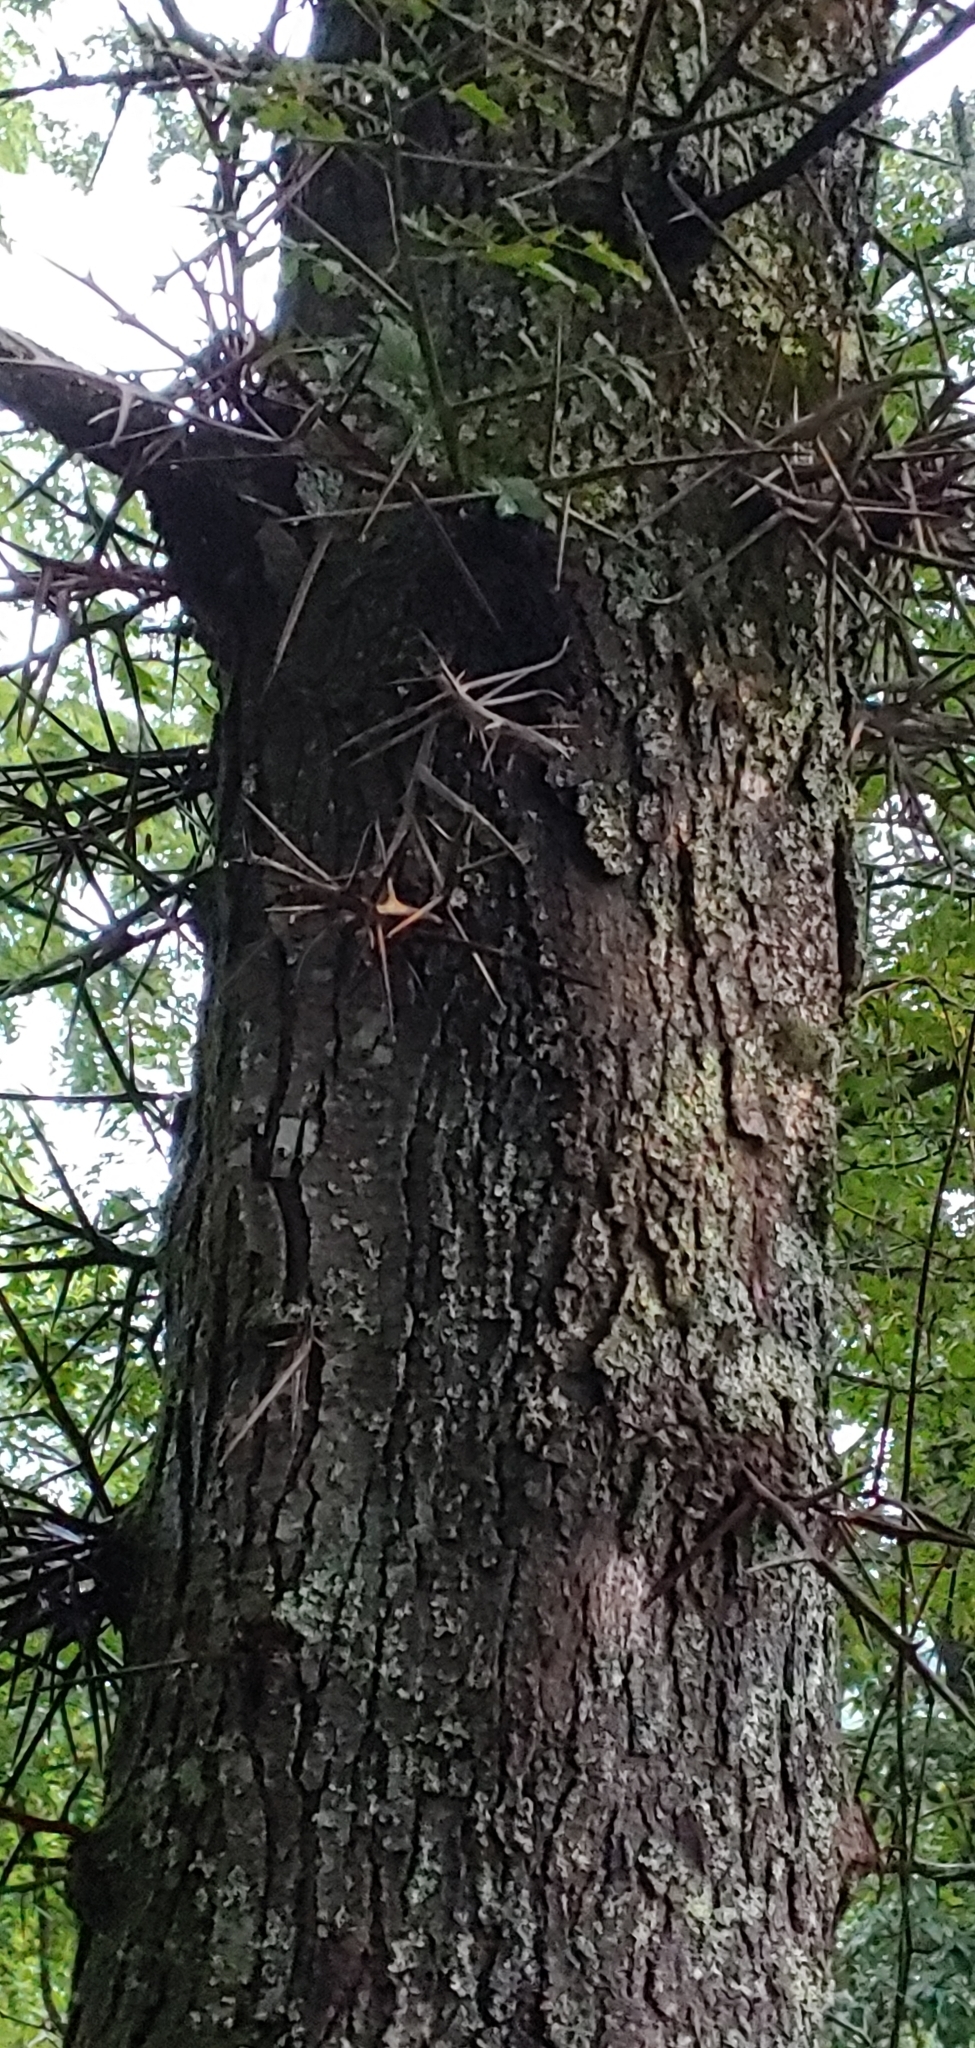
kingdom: Plantae
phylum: Tracheophyta
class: Magnoliopsida
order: Fabales
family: Fabaceae
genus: Gleditsia
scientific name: Gleditsia triacanthos
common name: Common honeylocust
